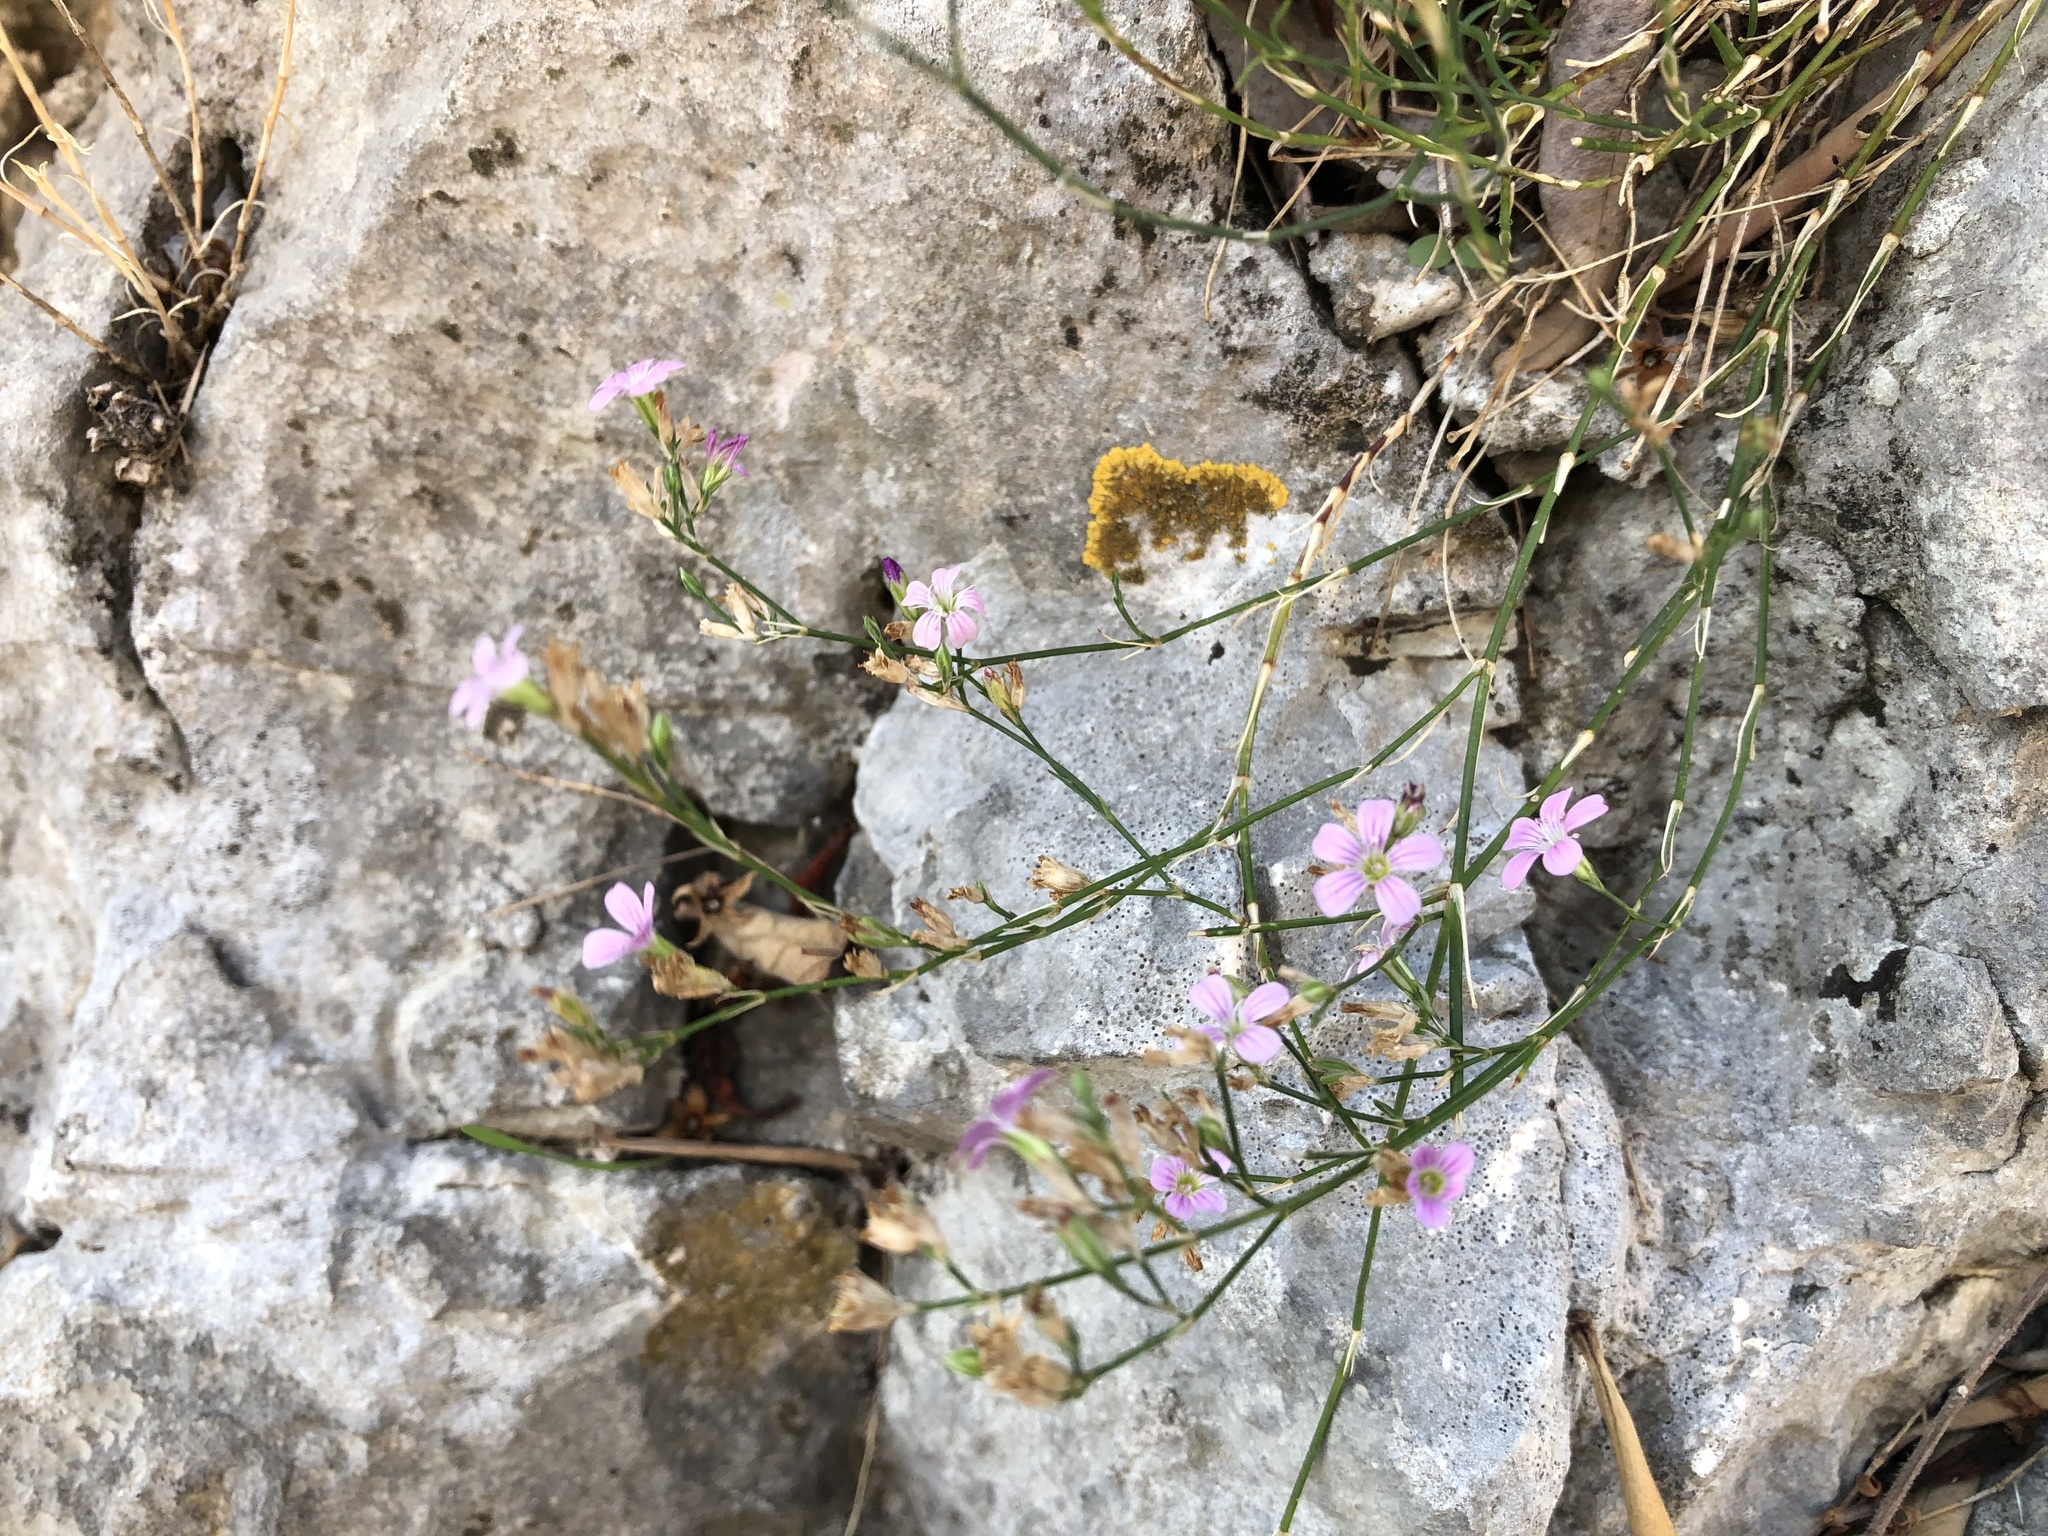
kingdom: Plantae
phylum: Tracheophyta
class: Magnoliopsida
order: Caryophyllales
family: Caryophyllaceae
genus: Petrorhagia
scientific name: Petrorhagia saxifraga
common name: Tunicflower
